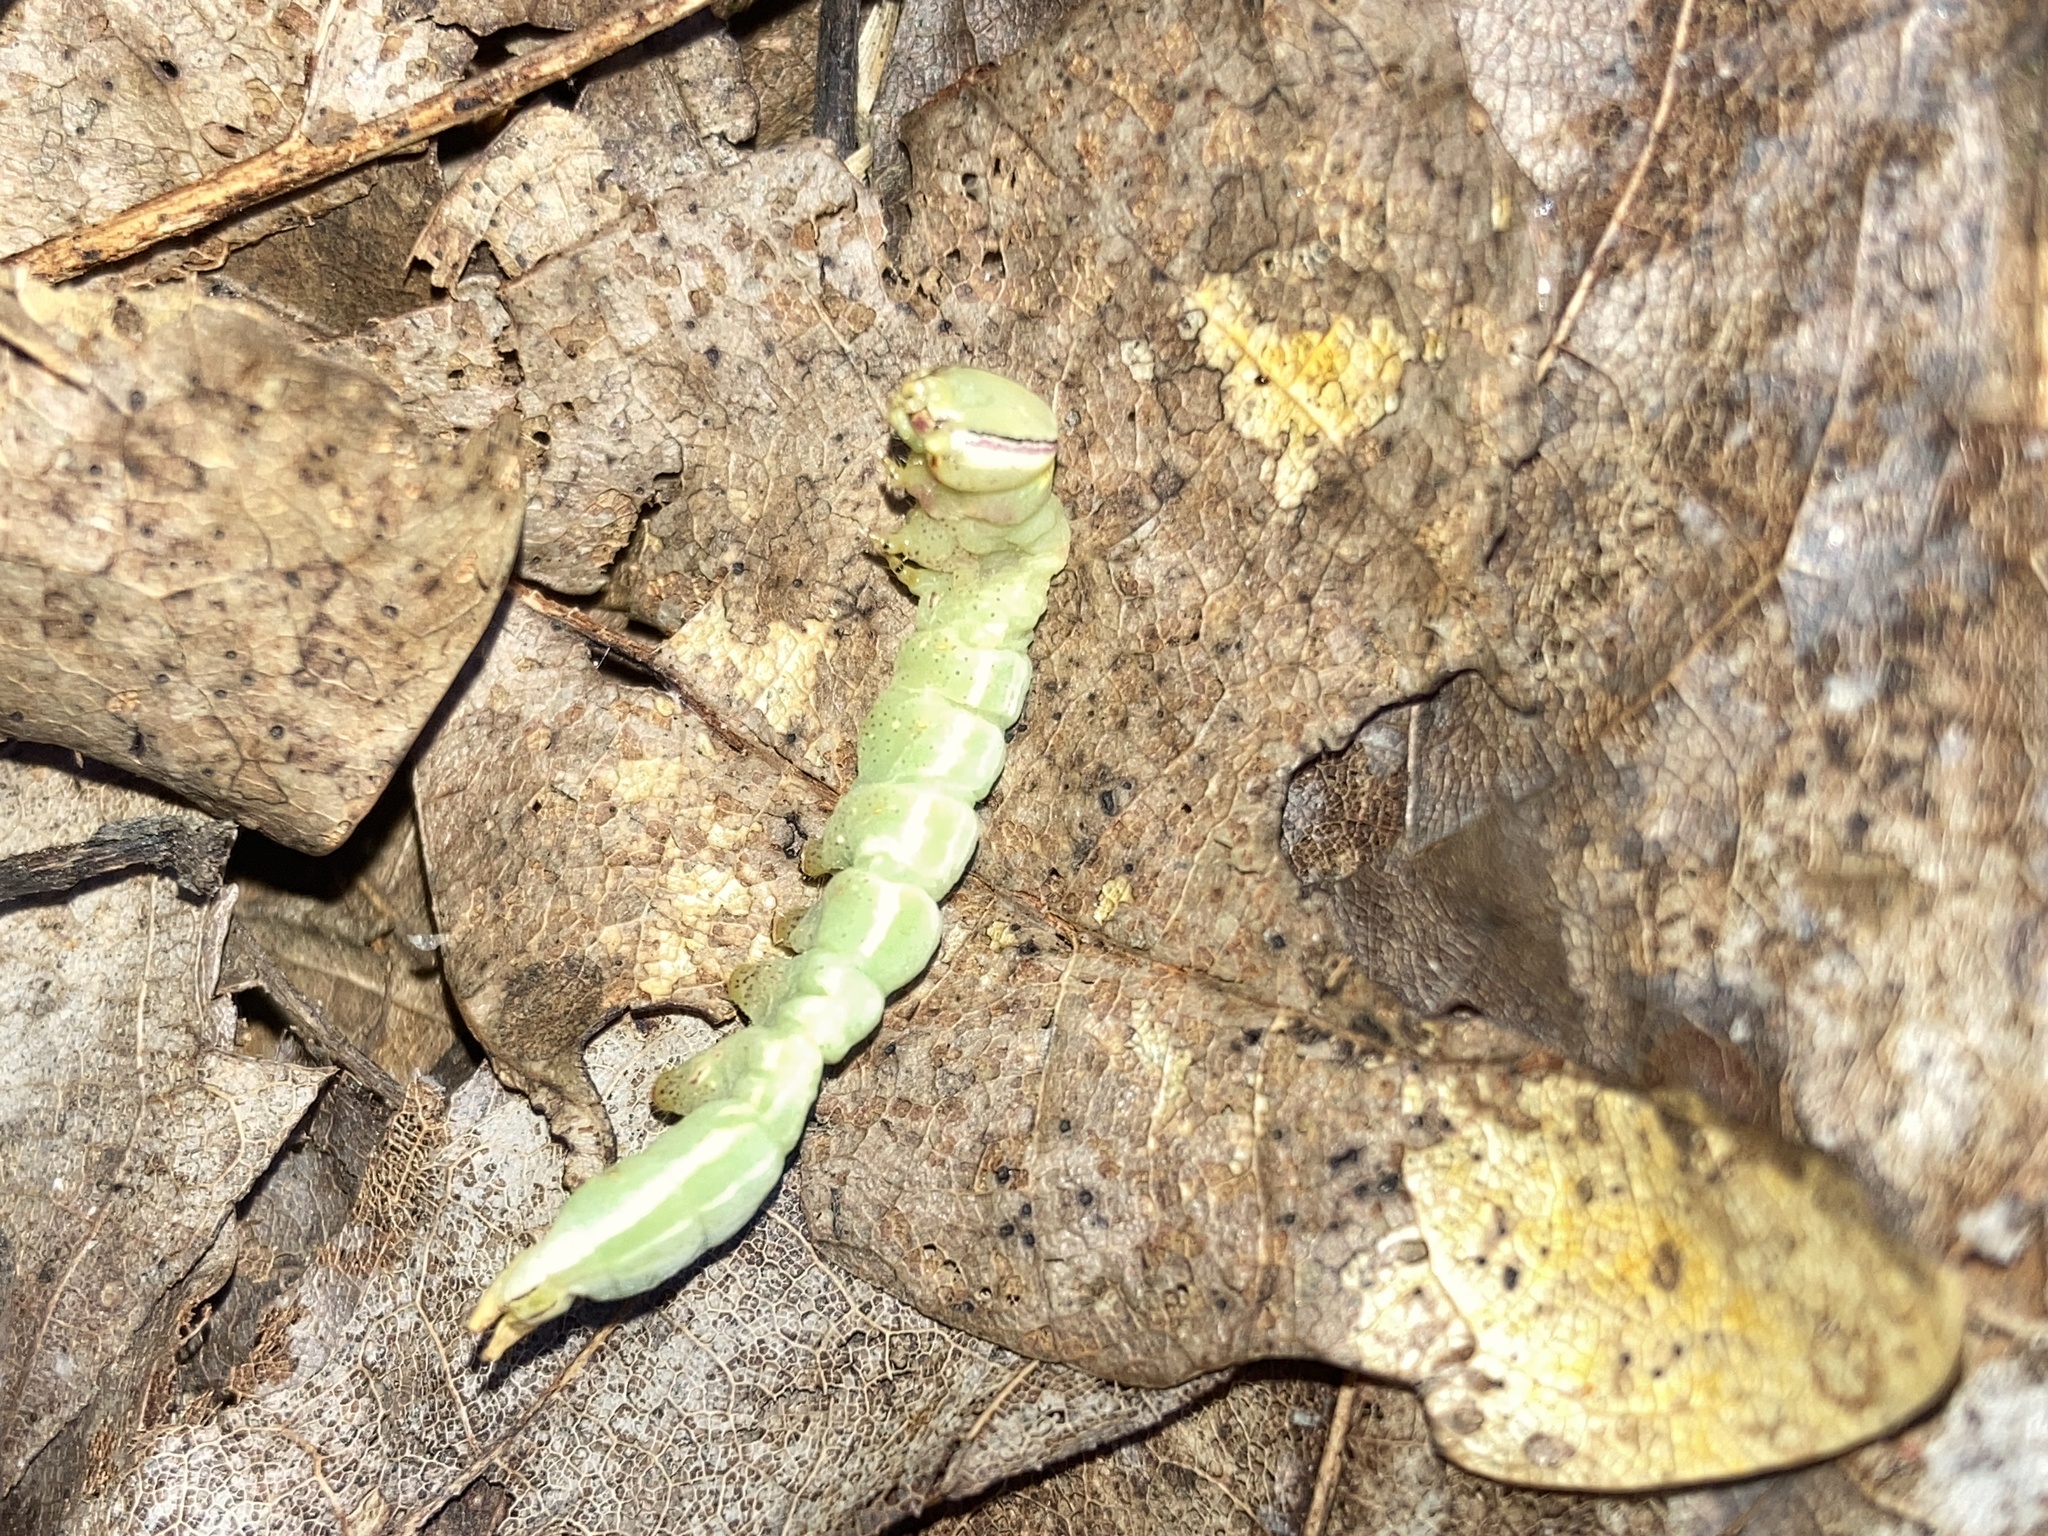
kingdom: Animalia
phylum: Arthropoda
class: Insecta
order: Lepidoptera
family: Notodontidae
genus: Disphragis
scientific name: Disphragis Cecrita guttivitta
